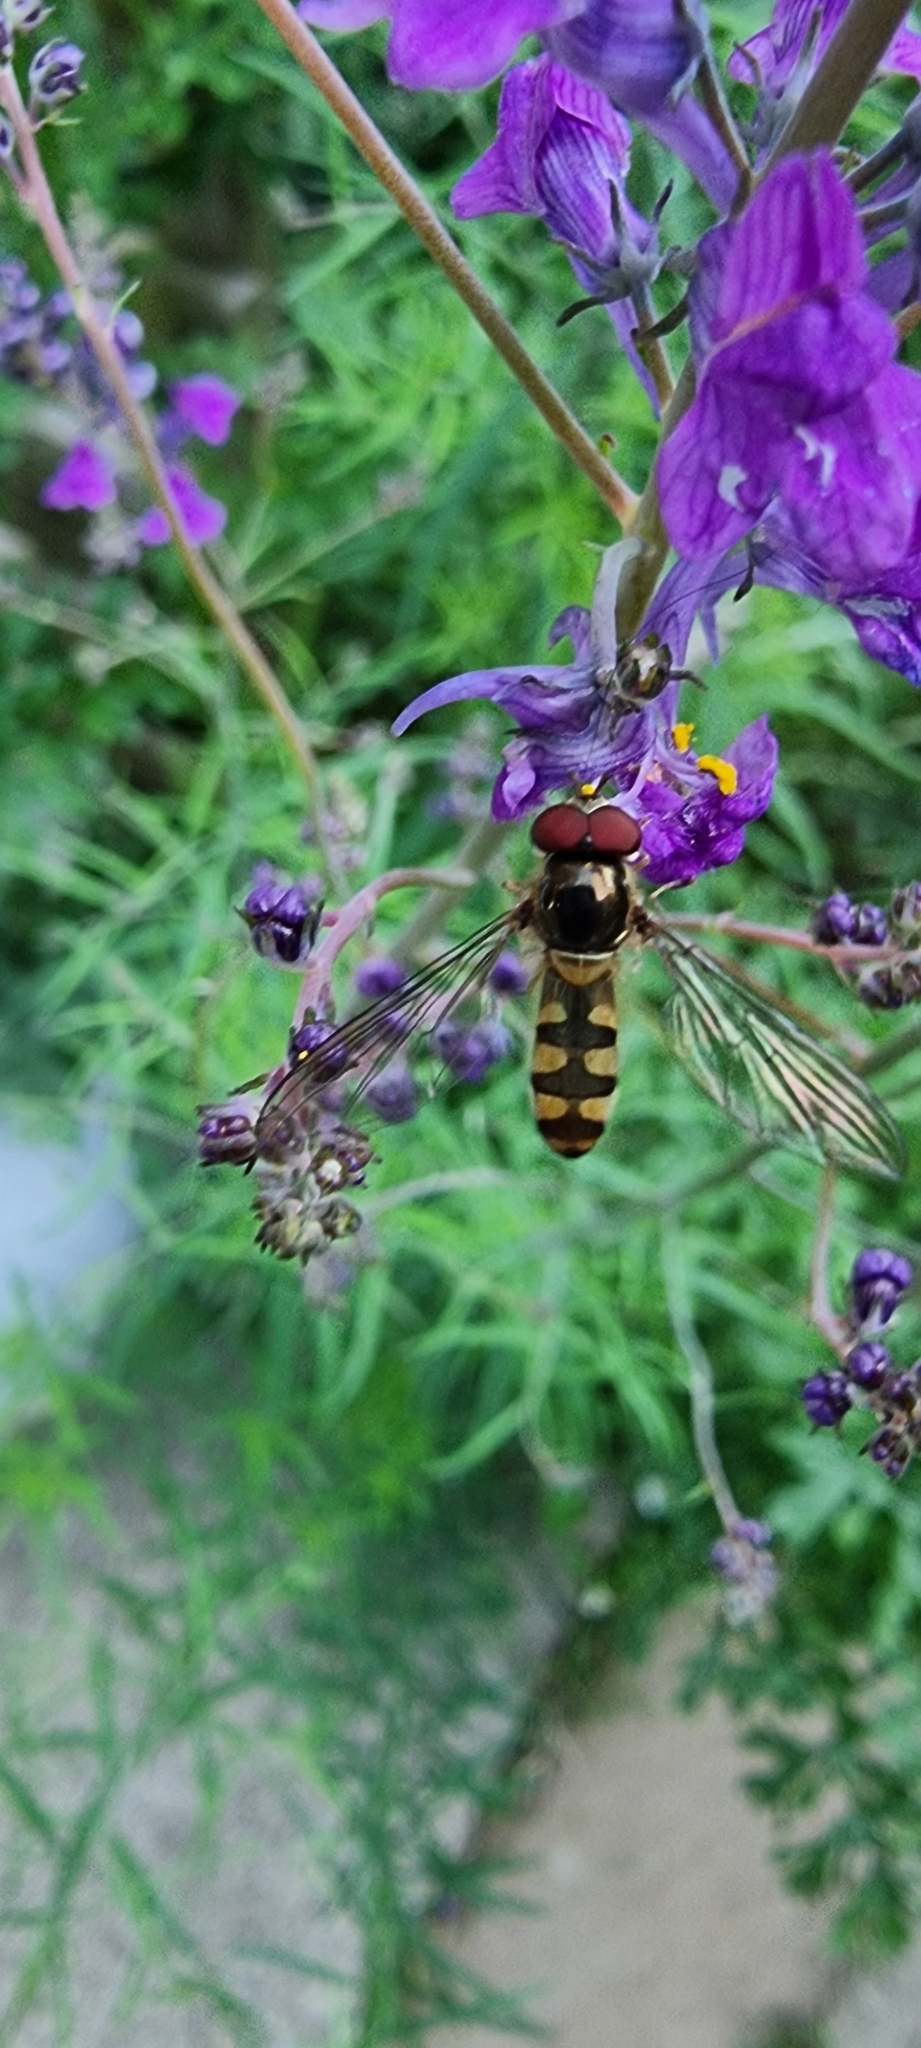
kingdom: Animalia
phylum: Arthropoda
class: Insecta
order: Diptera
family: Syrphidae
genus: Meliscaeva
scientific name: Meliscaeva auricollis
